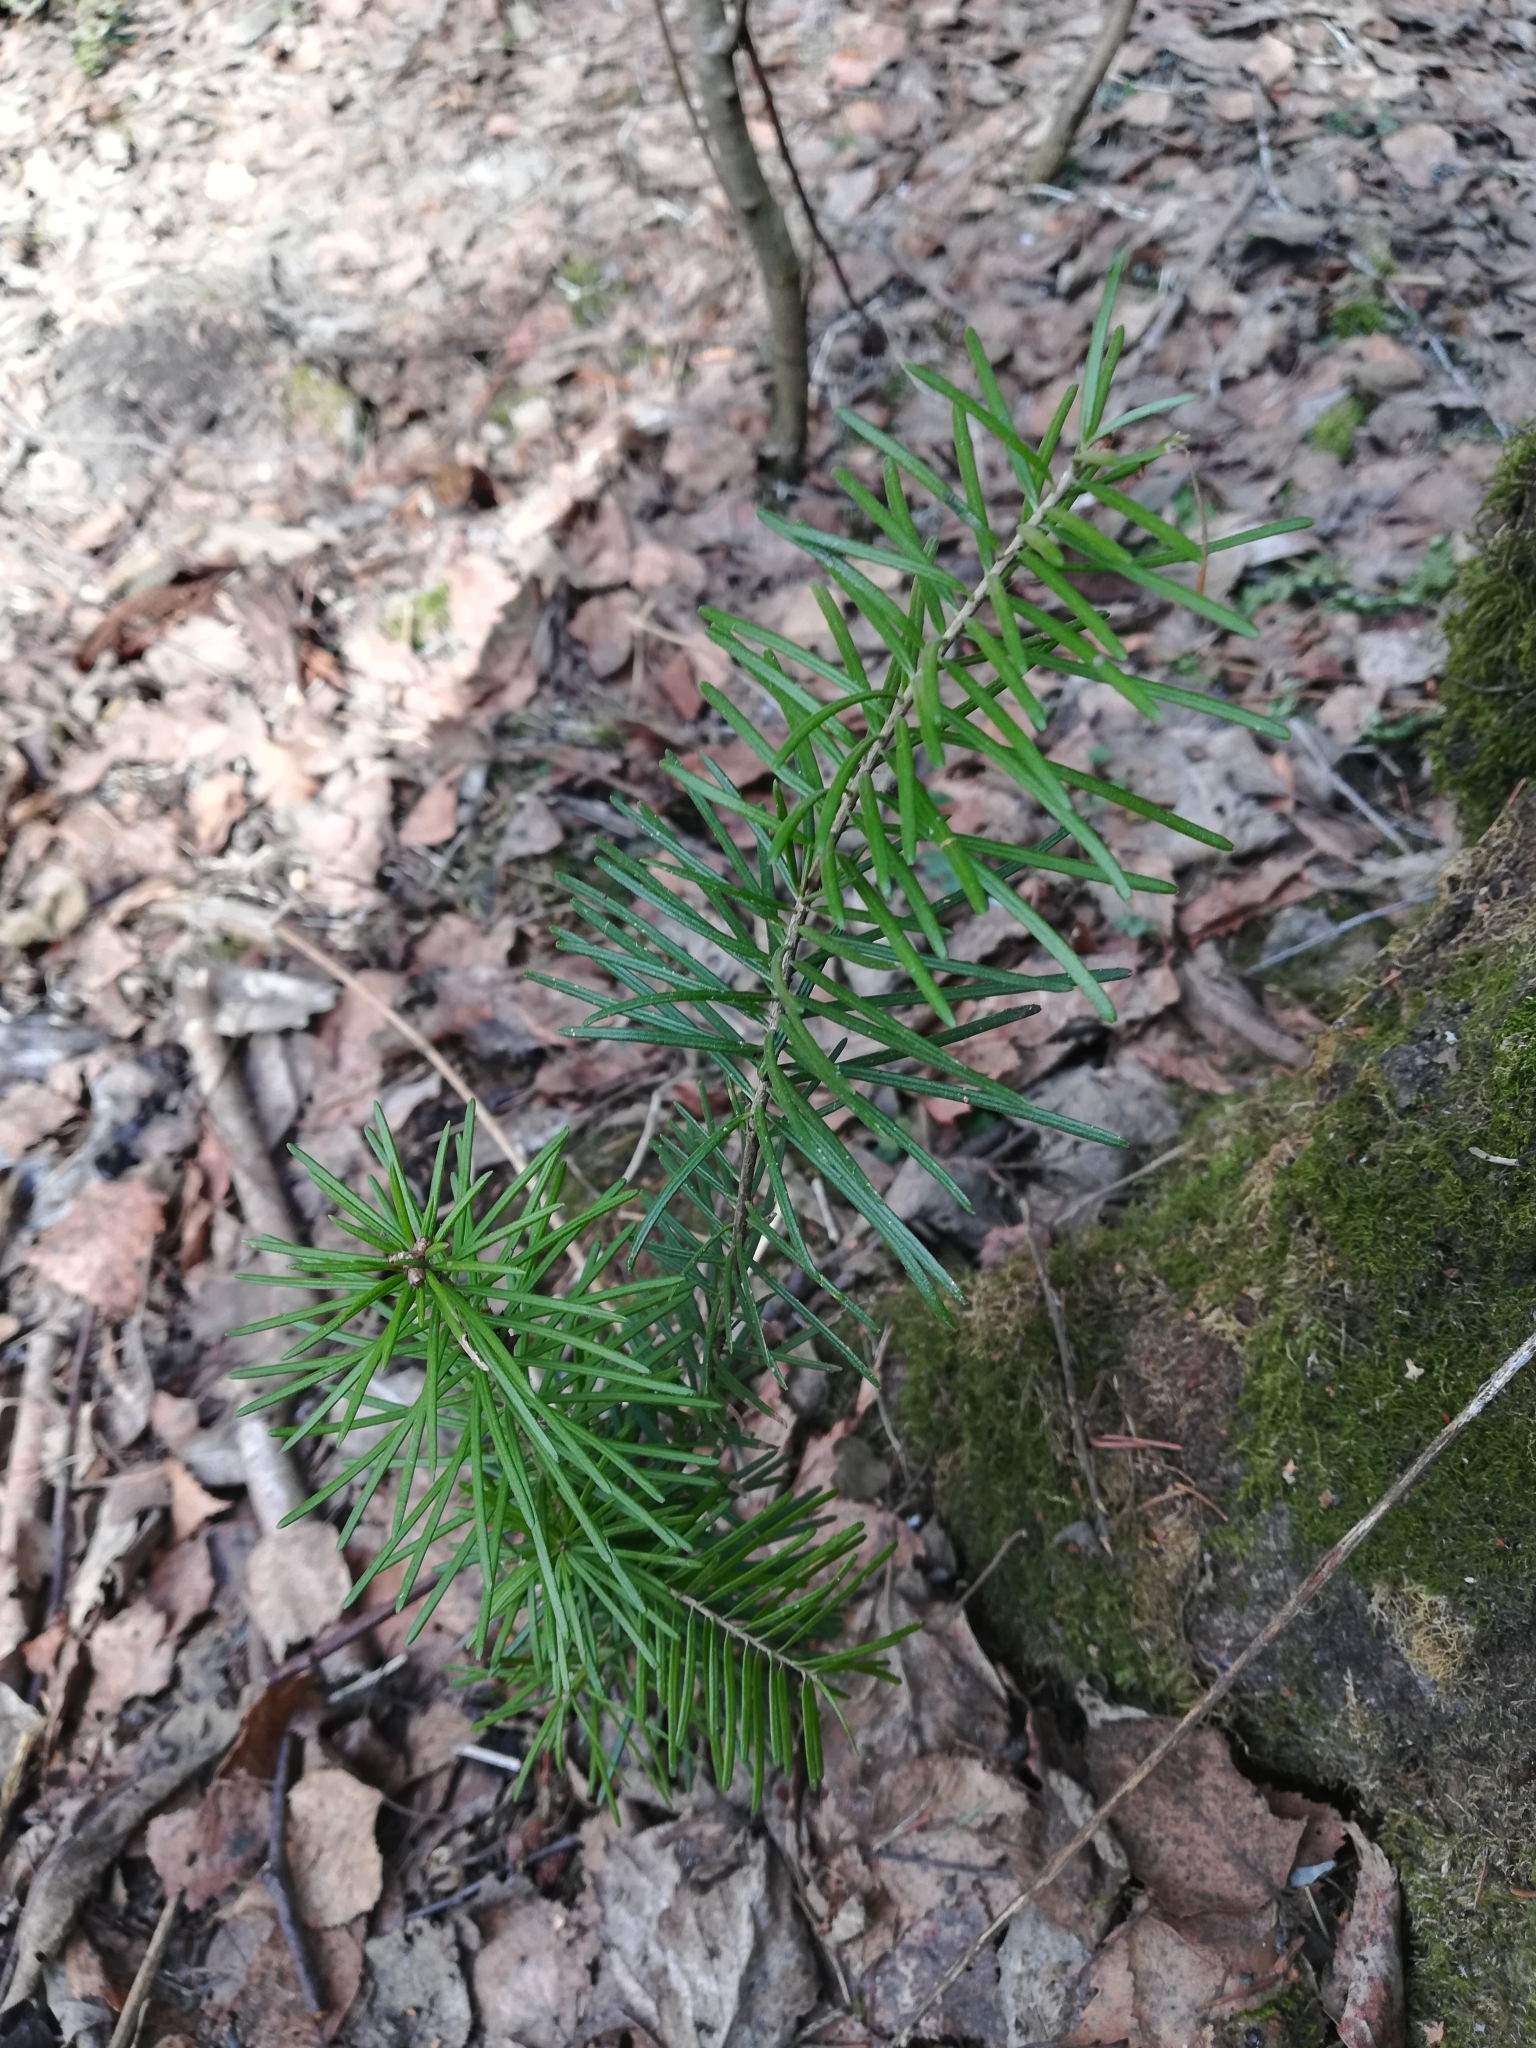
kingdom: Plantae
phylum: Tracheophyta
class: Pinopsida
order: Pinales
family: Pinaceae
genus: Abies
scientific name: Abies sibirica
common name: Siberian fir
